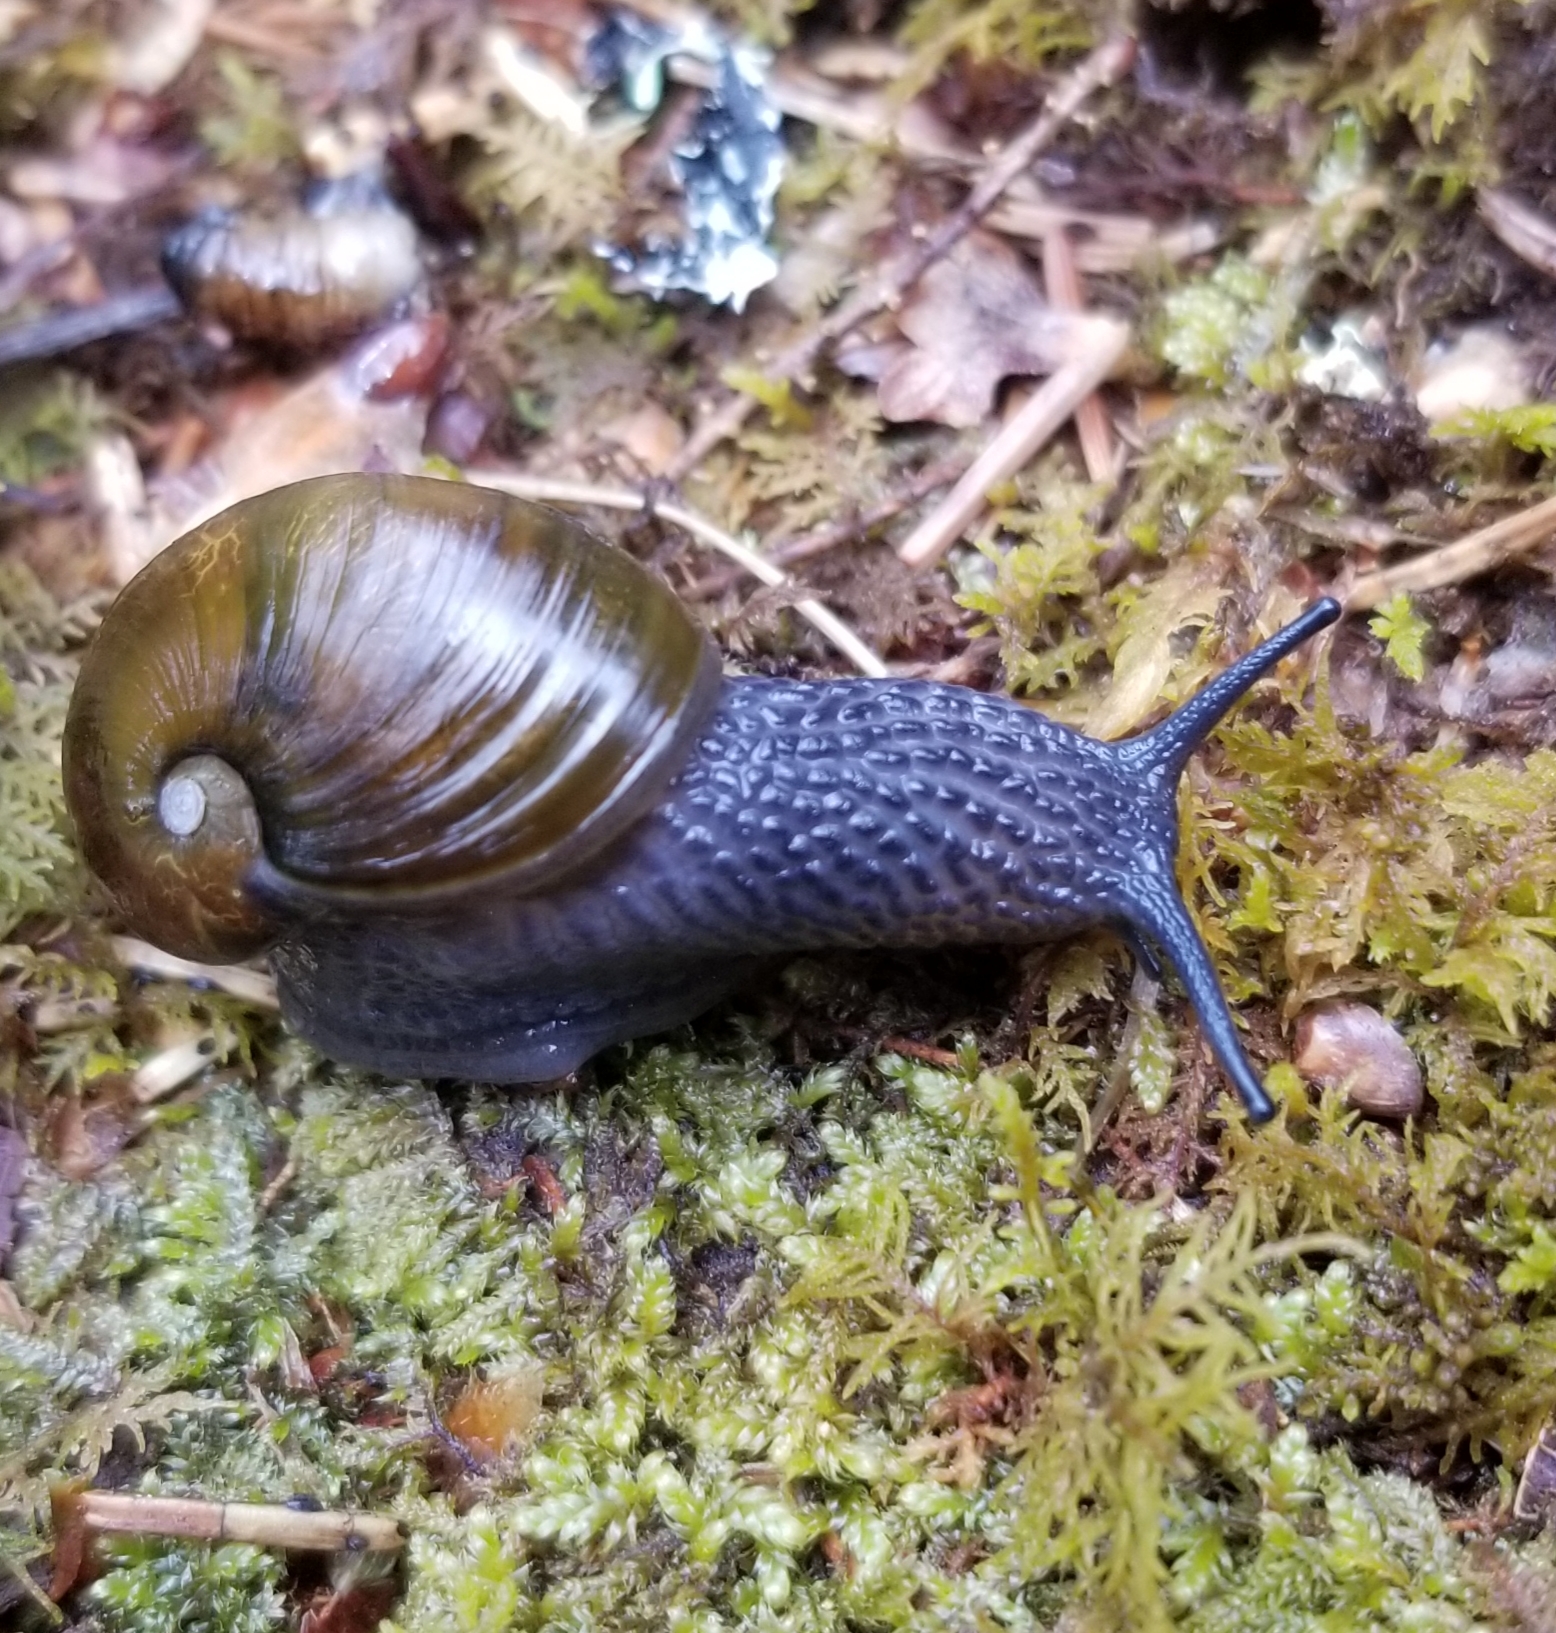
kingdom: Animalia
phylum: Mollusca
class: Gastropoda
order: Stylommatophora
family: Gastrodontidae
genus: Vitrinizonites
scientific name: Vitrinizonites latissimus
